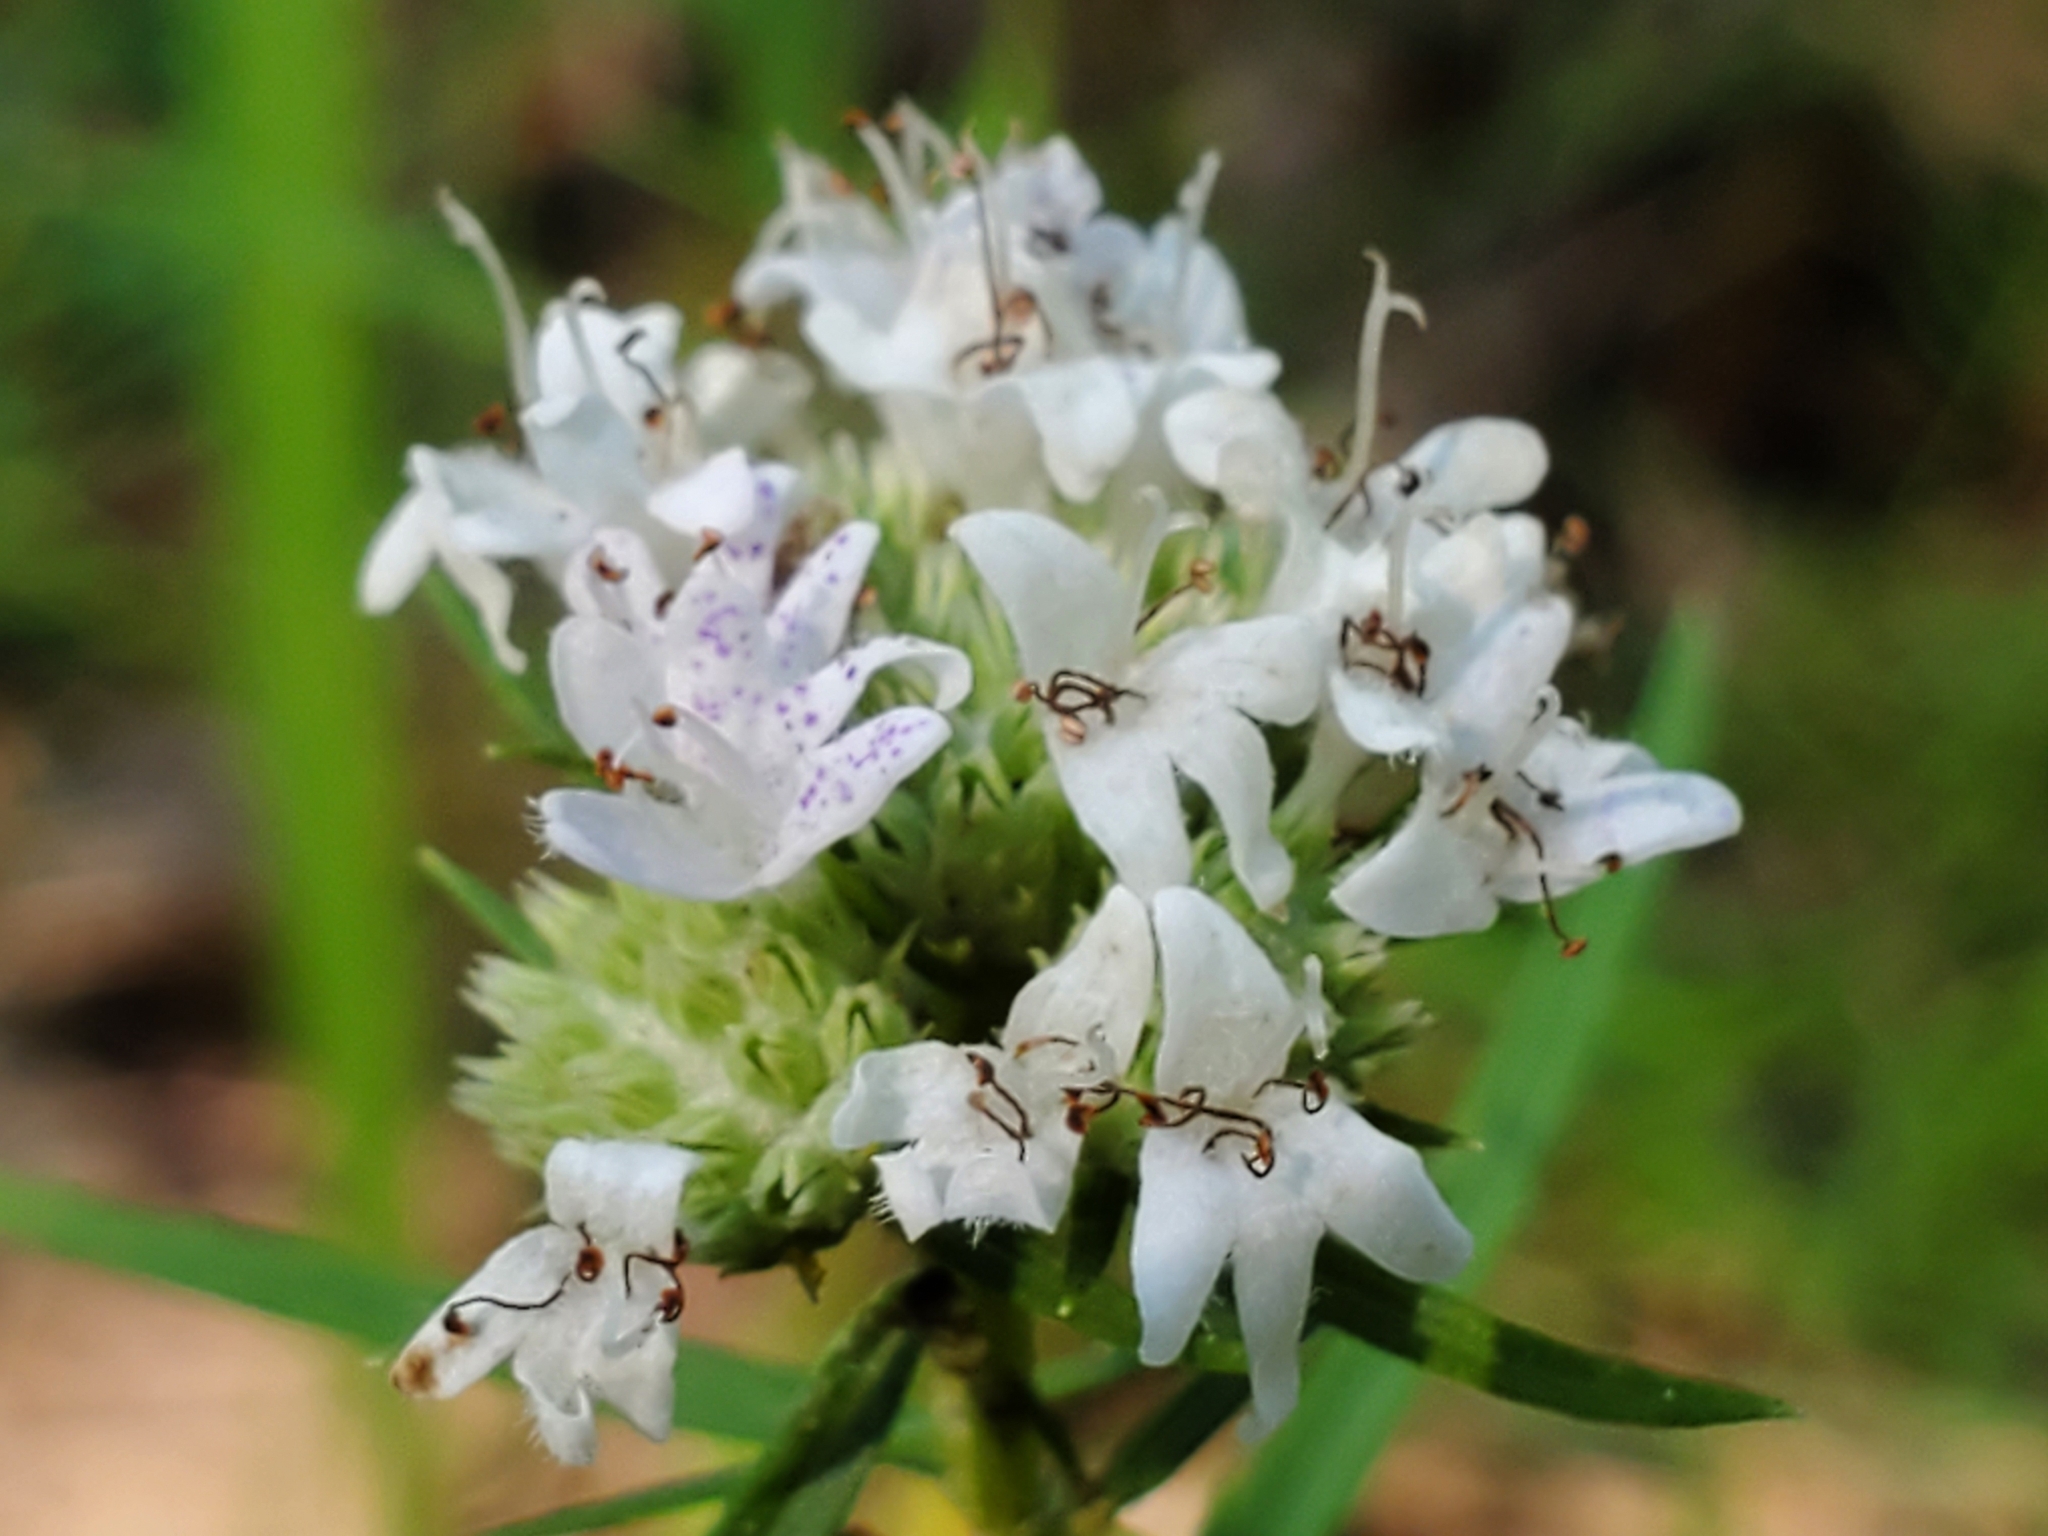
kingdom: Plantae
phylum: Tracheophyta
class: Magnoliopsida
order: Lamiales
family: Lamiaceae
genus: Pycnanthemum
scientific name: Pycnanthemum tenuifolium
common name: Narrow-leaf mountain-mint
